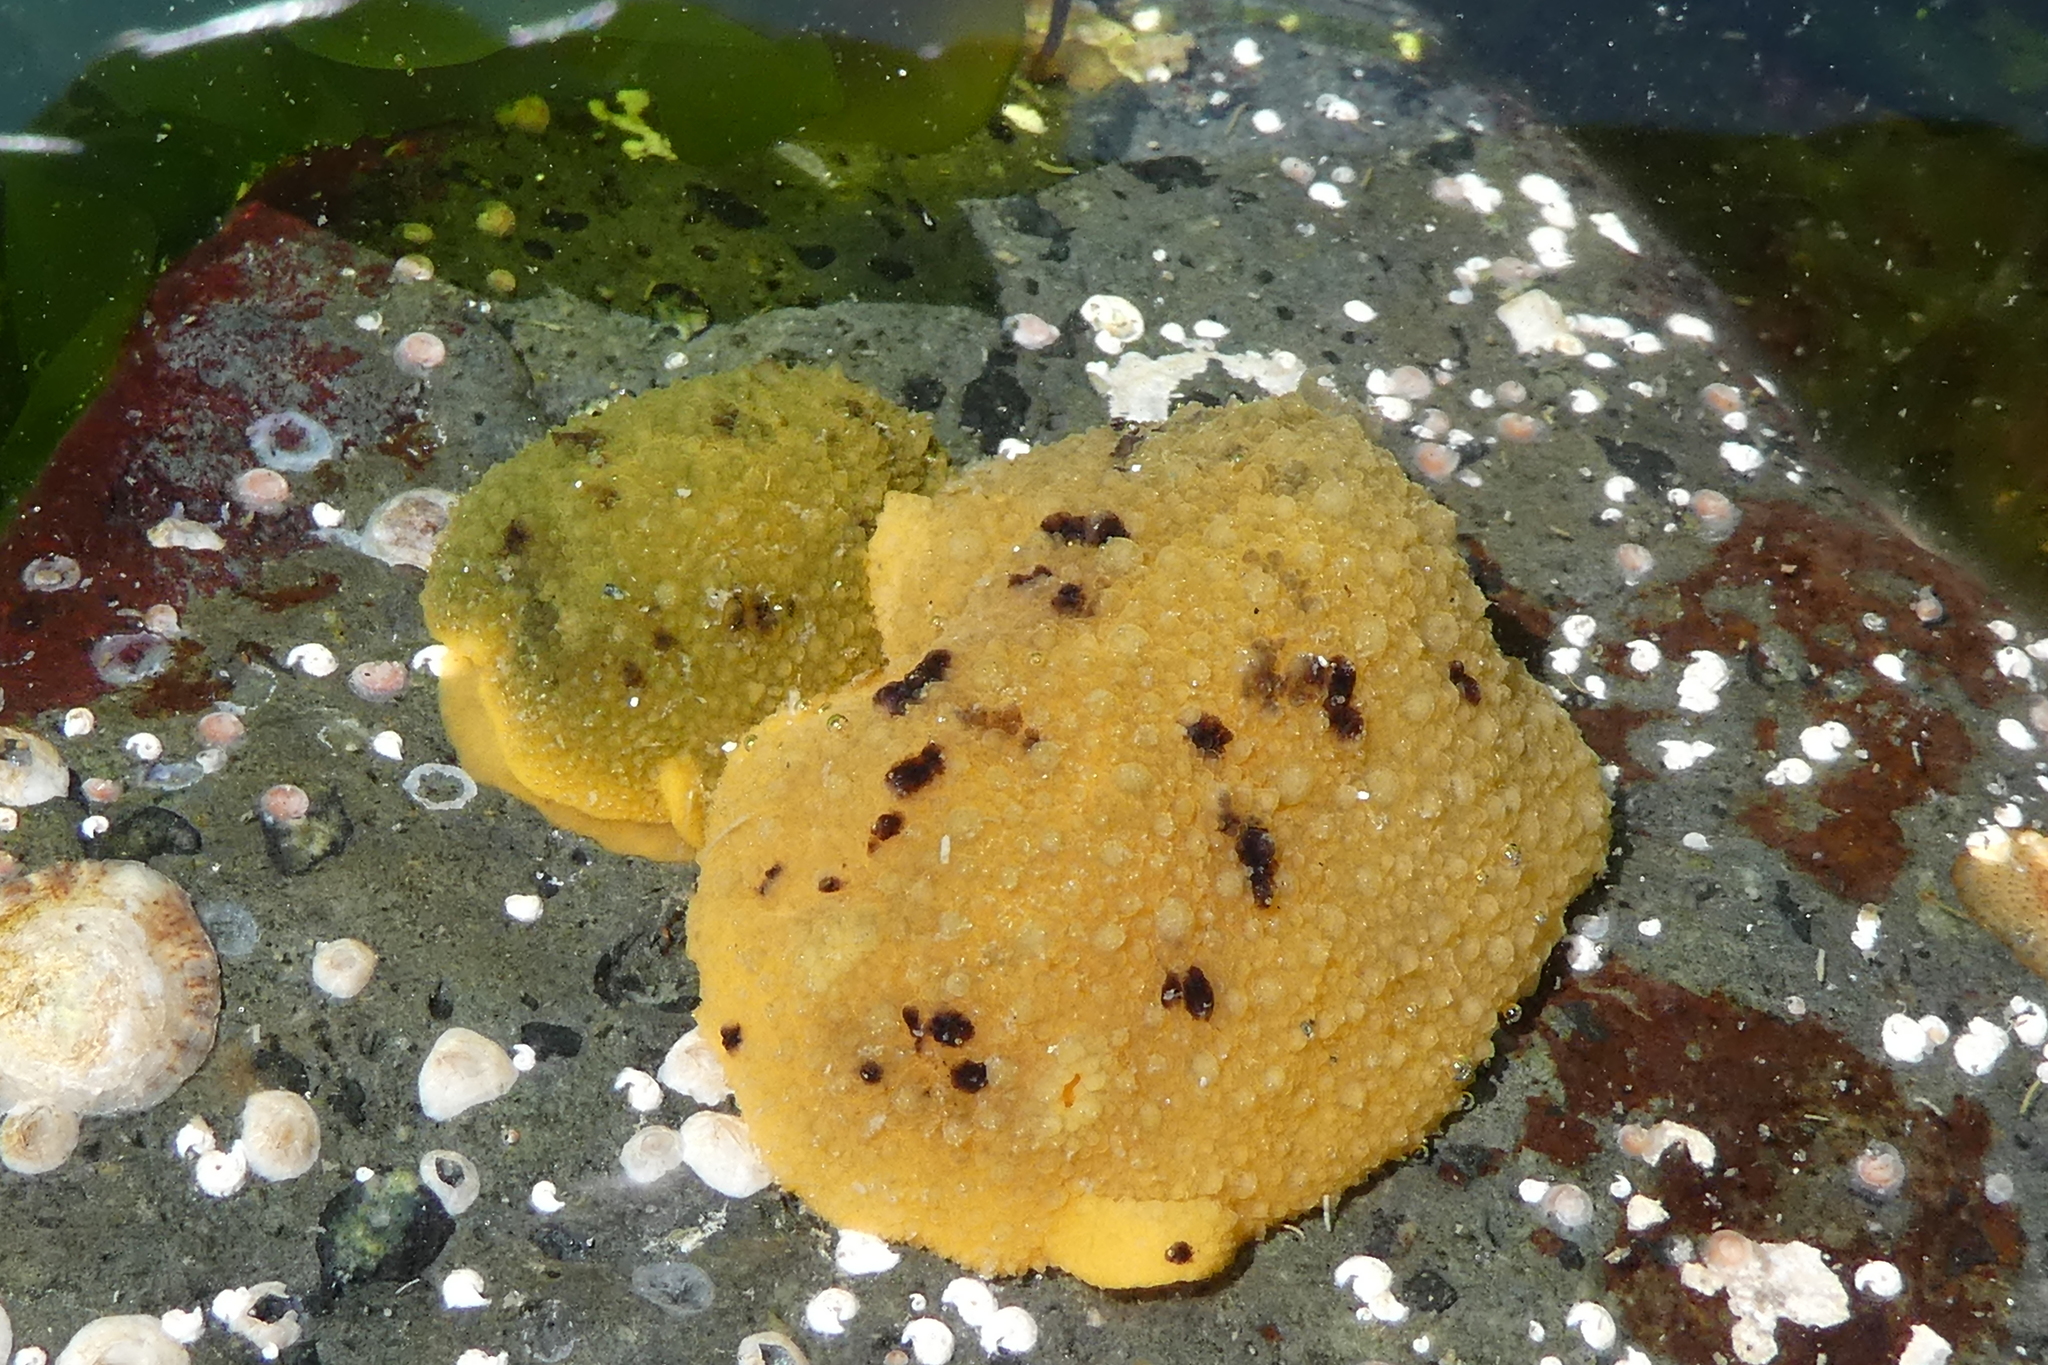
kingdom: Animalia
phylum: Mollusca
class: Gastropoda
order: Nudibranchia
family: Dorididae
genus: Doris
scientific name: Doris montereyensis
